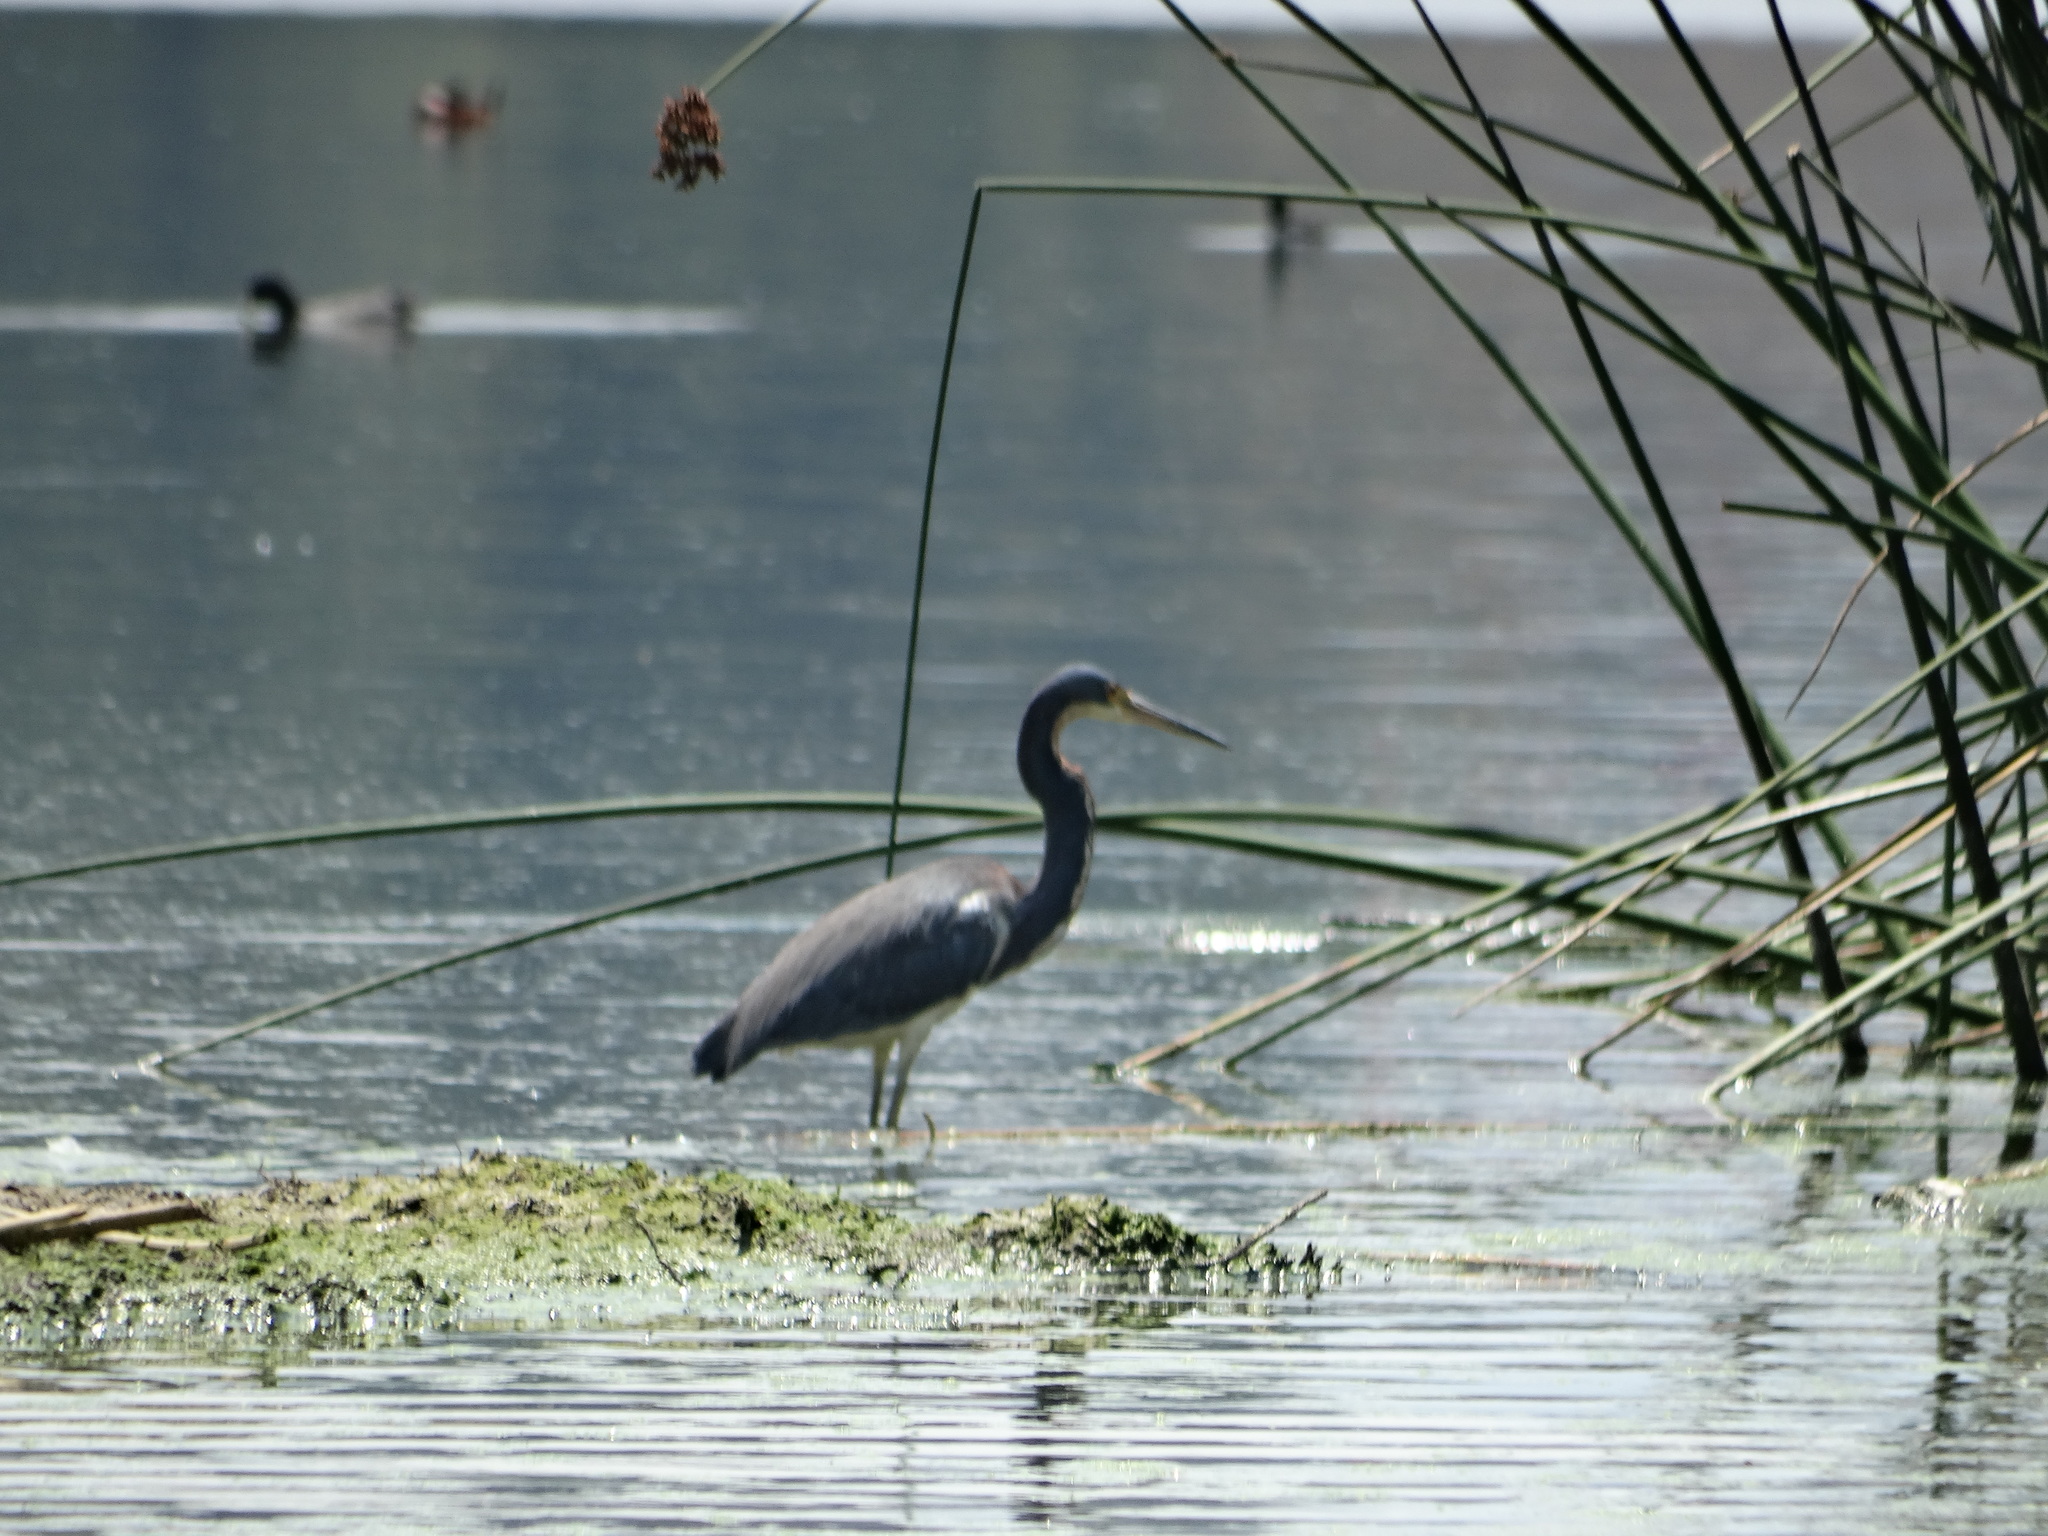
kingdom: Animalia
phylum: Chordata
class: Aves
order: Pelecaniformes
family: Ardeidae
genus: Egretta
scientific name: Egretta tricolor
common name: Tricolored heron
